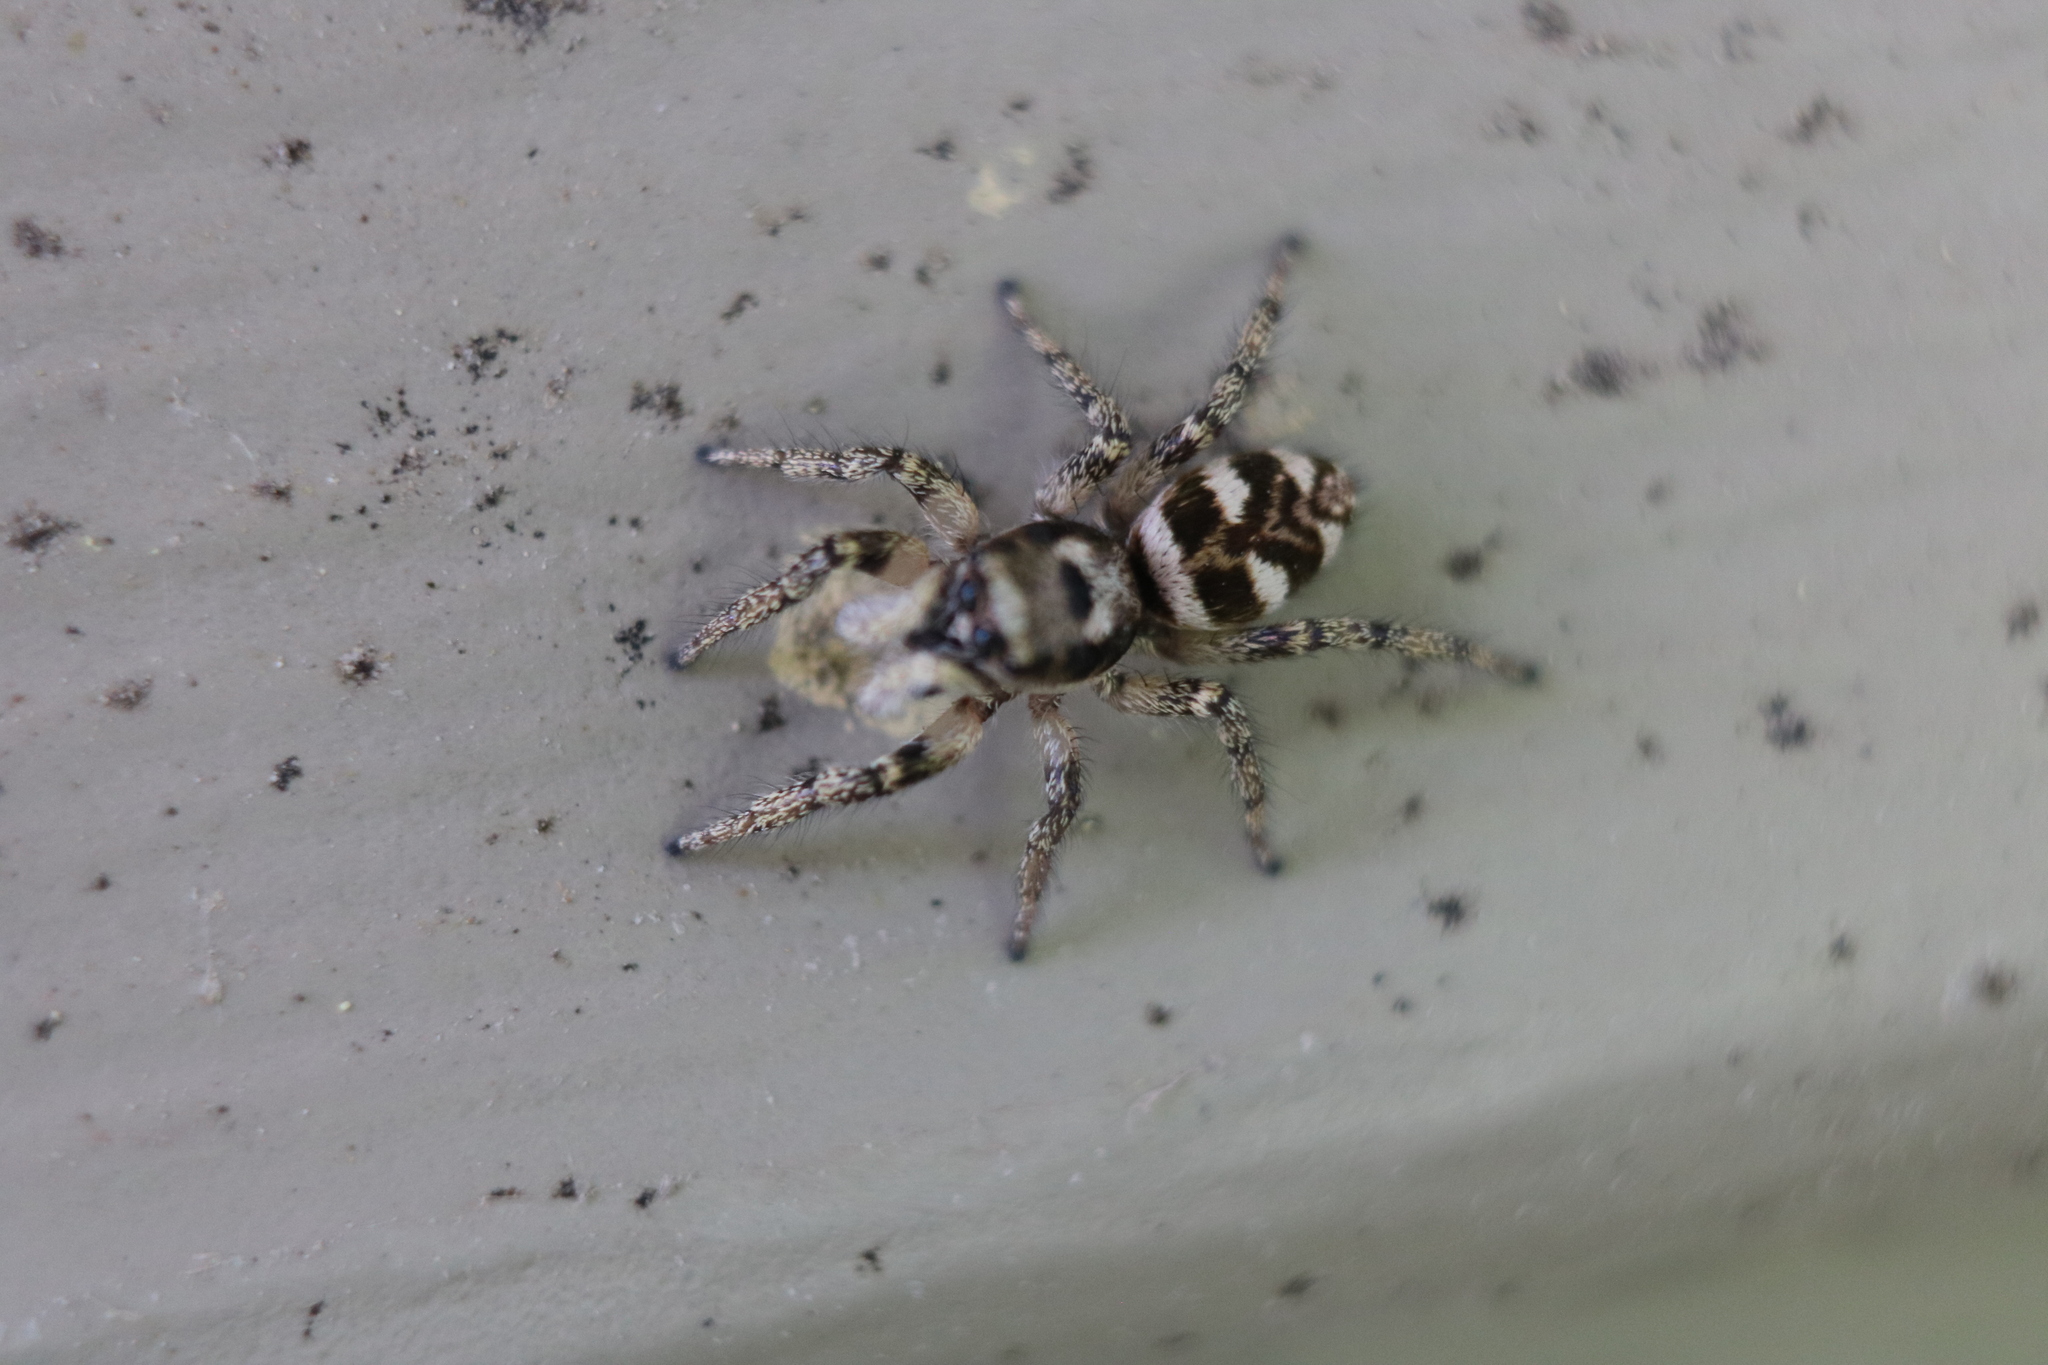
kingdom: Animalia
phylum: Arthropoda
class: Arachnida
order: Araneae
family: Salticidae
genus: Salticus
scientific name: Salticus scenicus
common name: Zebra jumper
